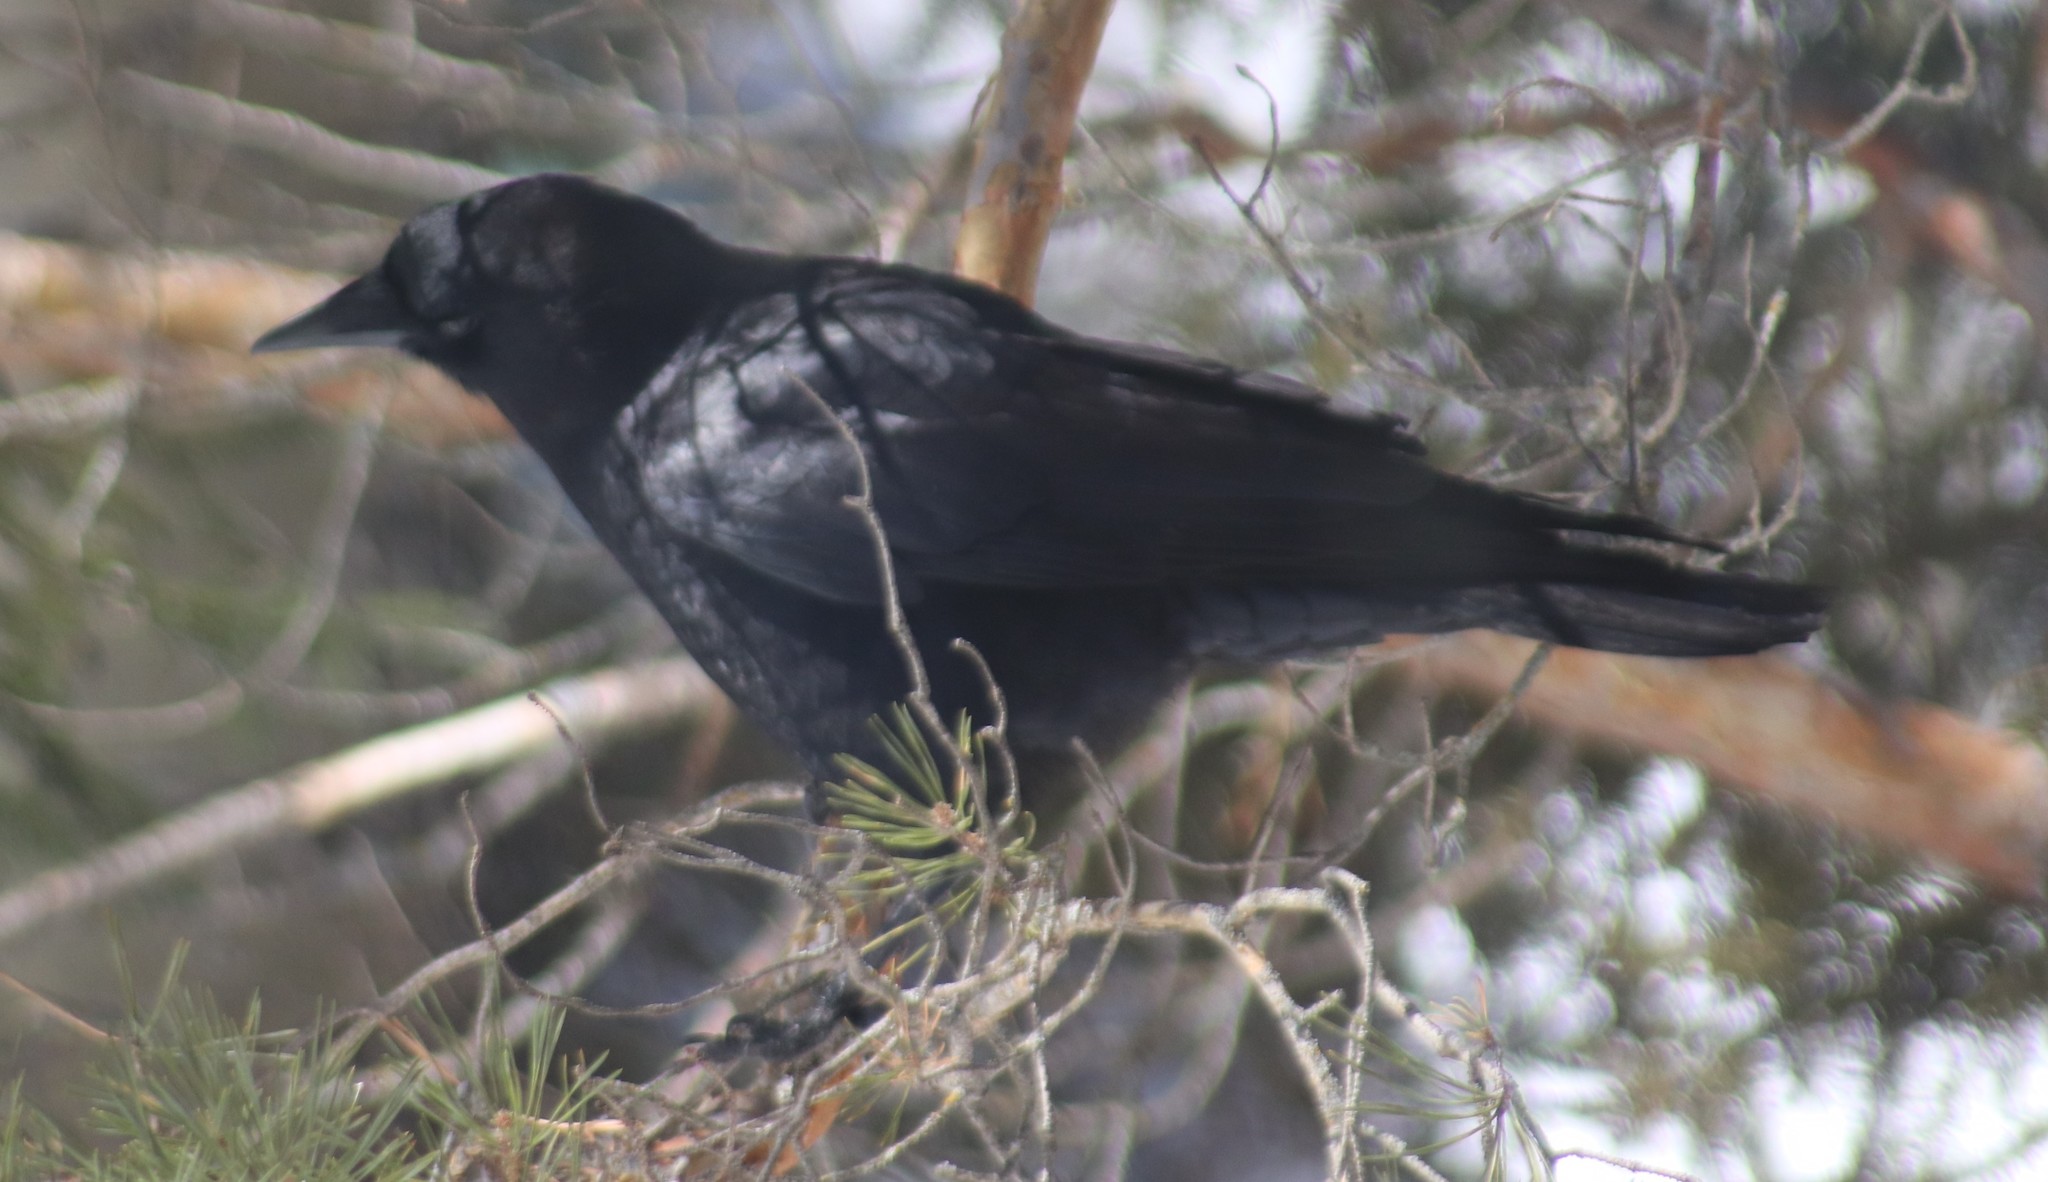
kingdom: Animalia
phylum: Chordata
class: Aves
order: Passeriformes
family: Corvidae
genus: Corvus
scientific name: Corvus brachyrhynchos
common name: American crow
